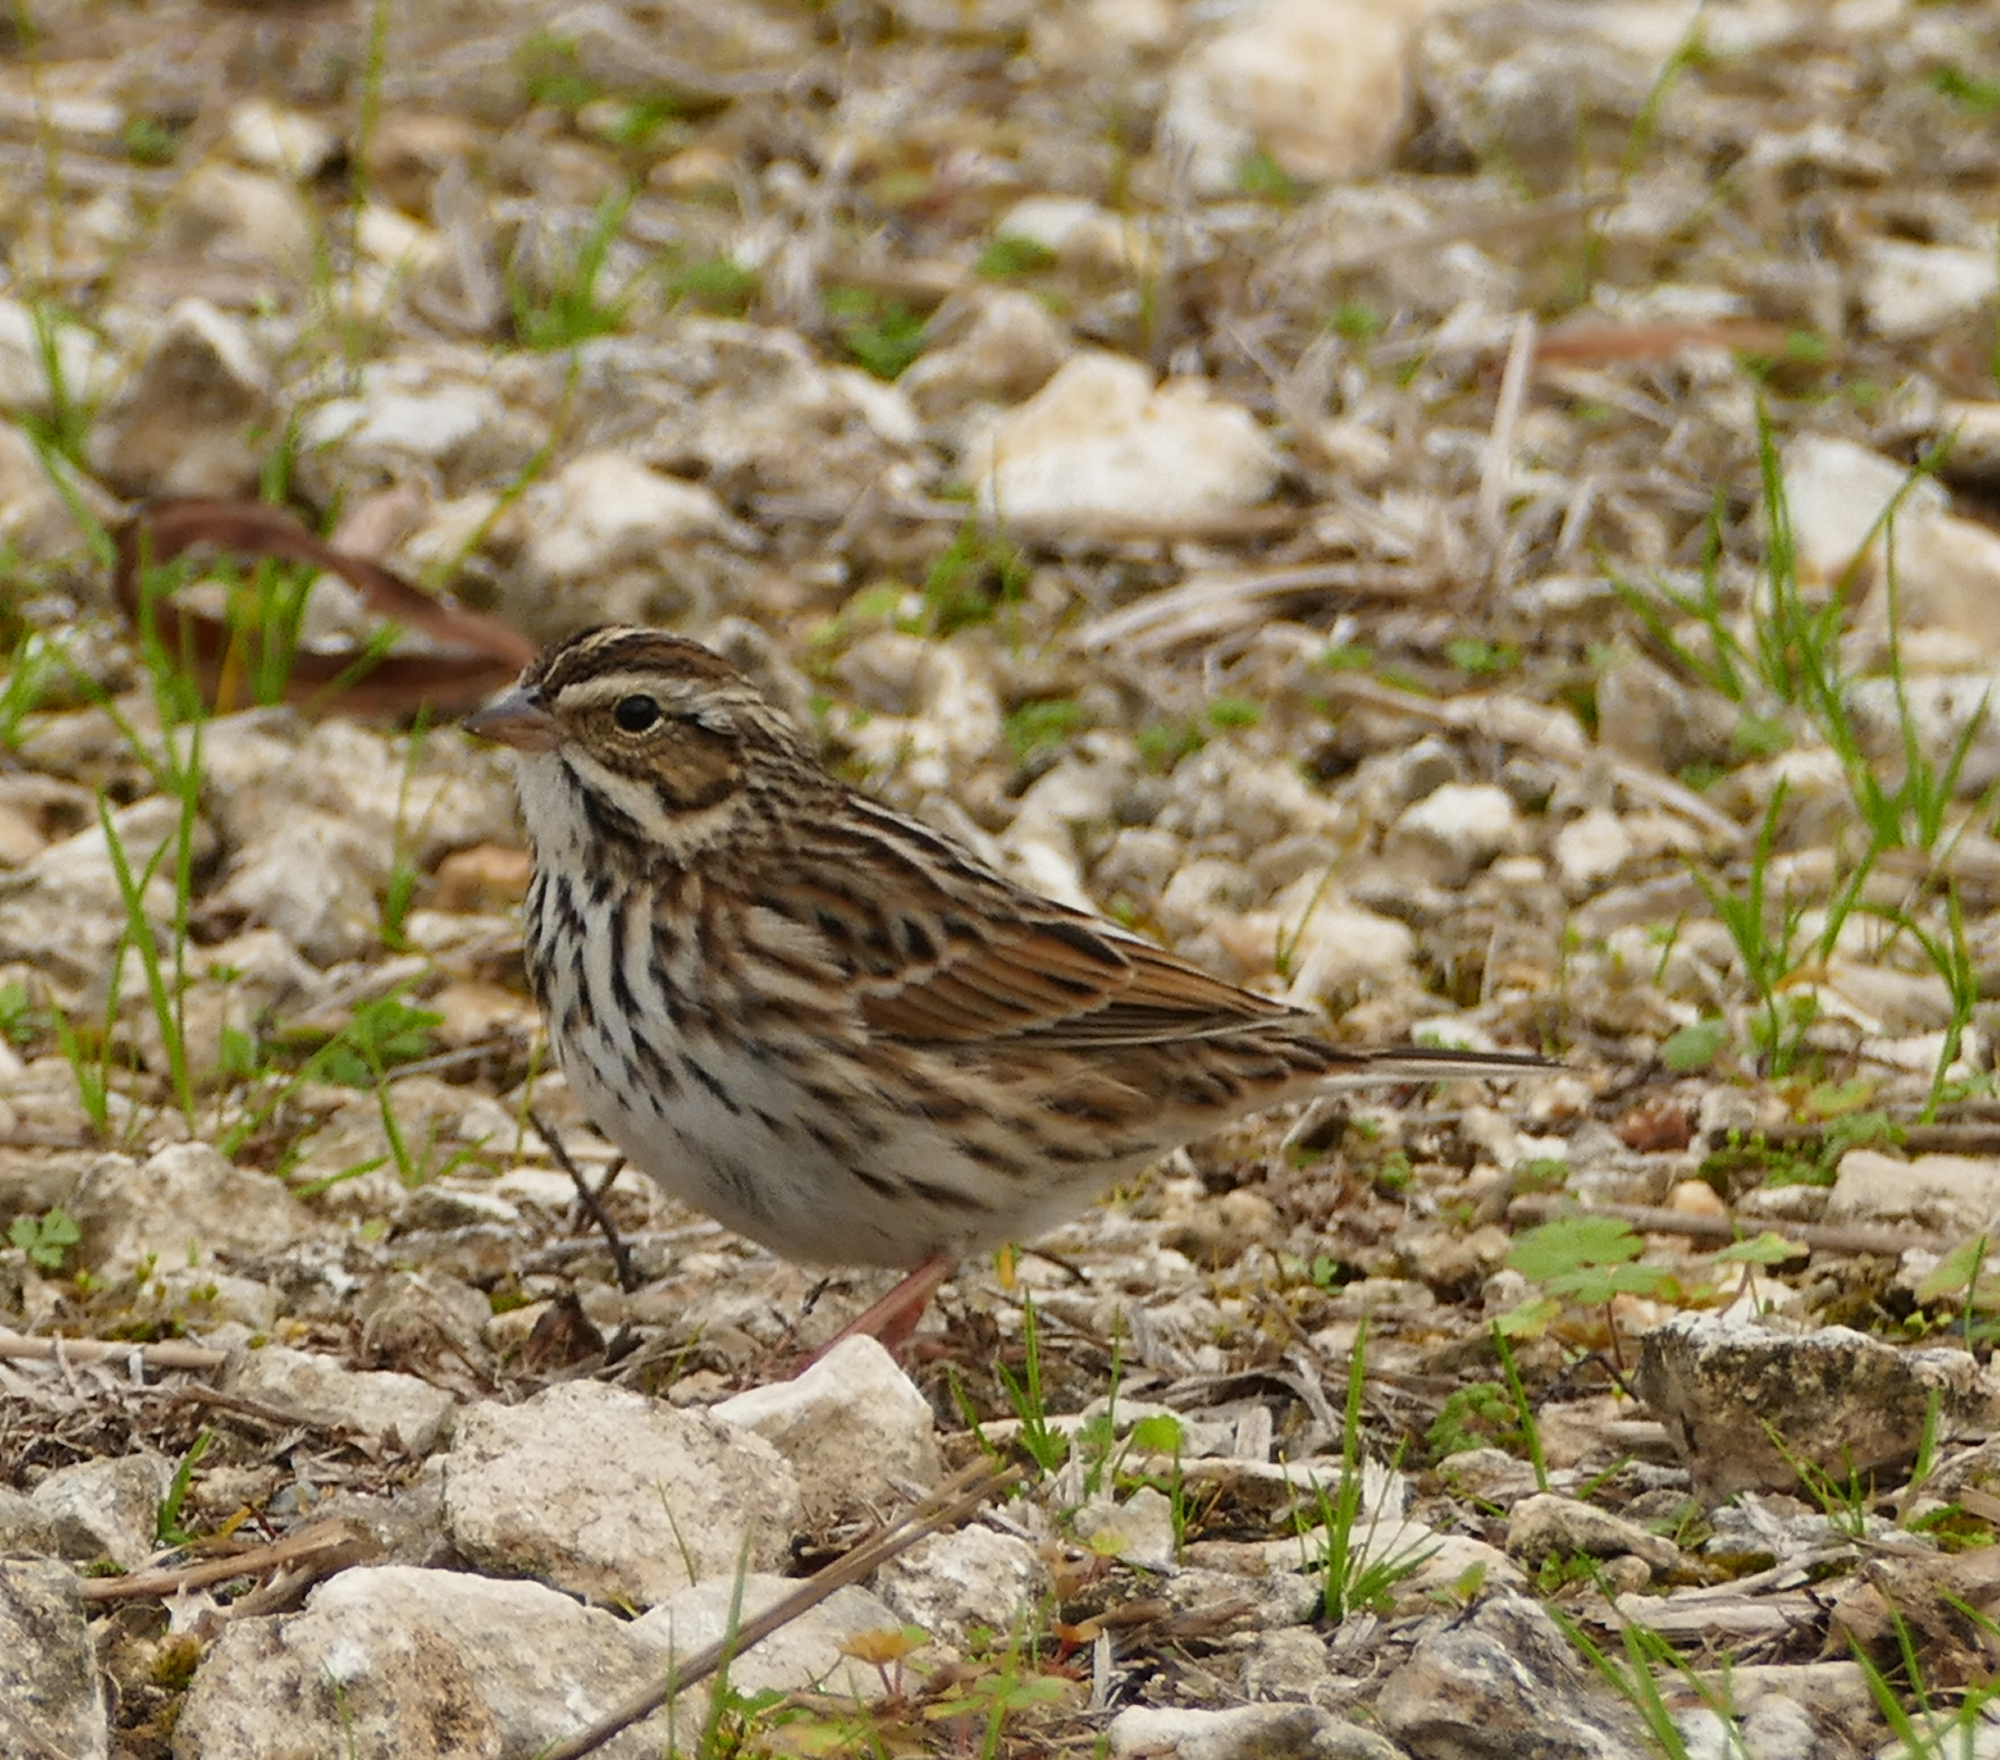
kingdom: Animalia
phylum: Chordata
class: Aves
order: Passeriformes
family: Passerellidae
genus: Passerculus
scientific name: Passerculus sandwichensis
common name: Savannah sparrow
